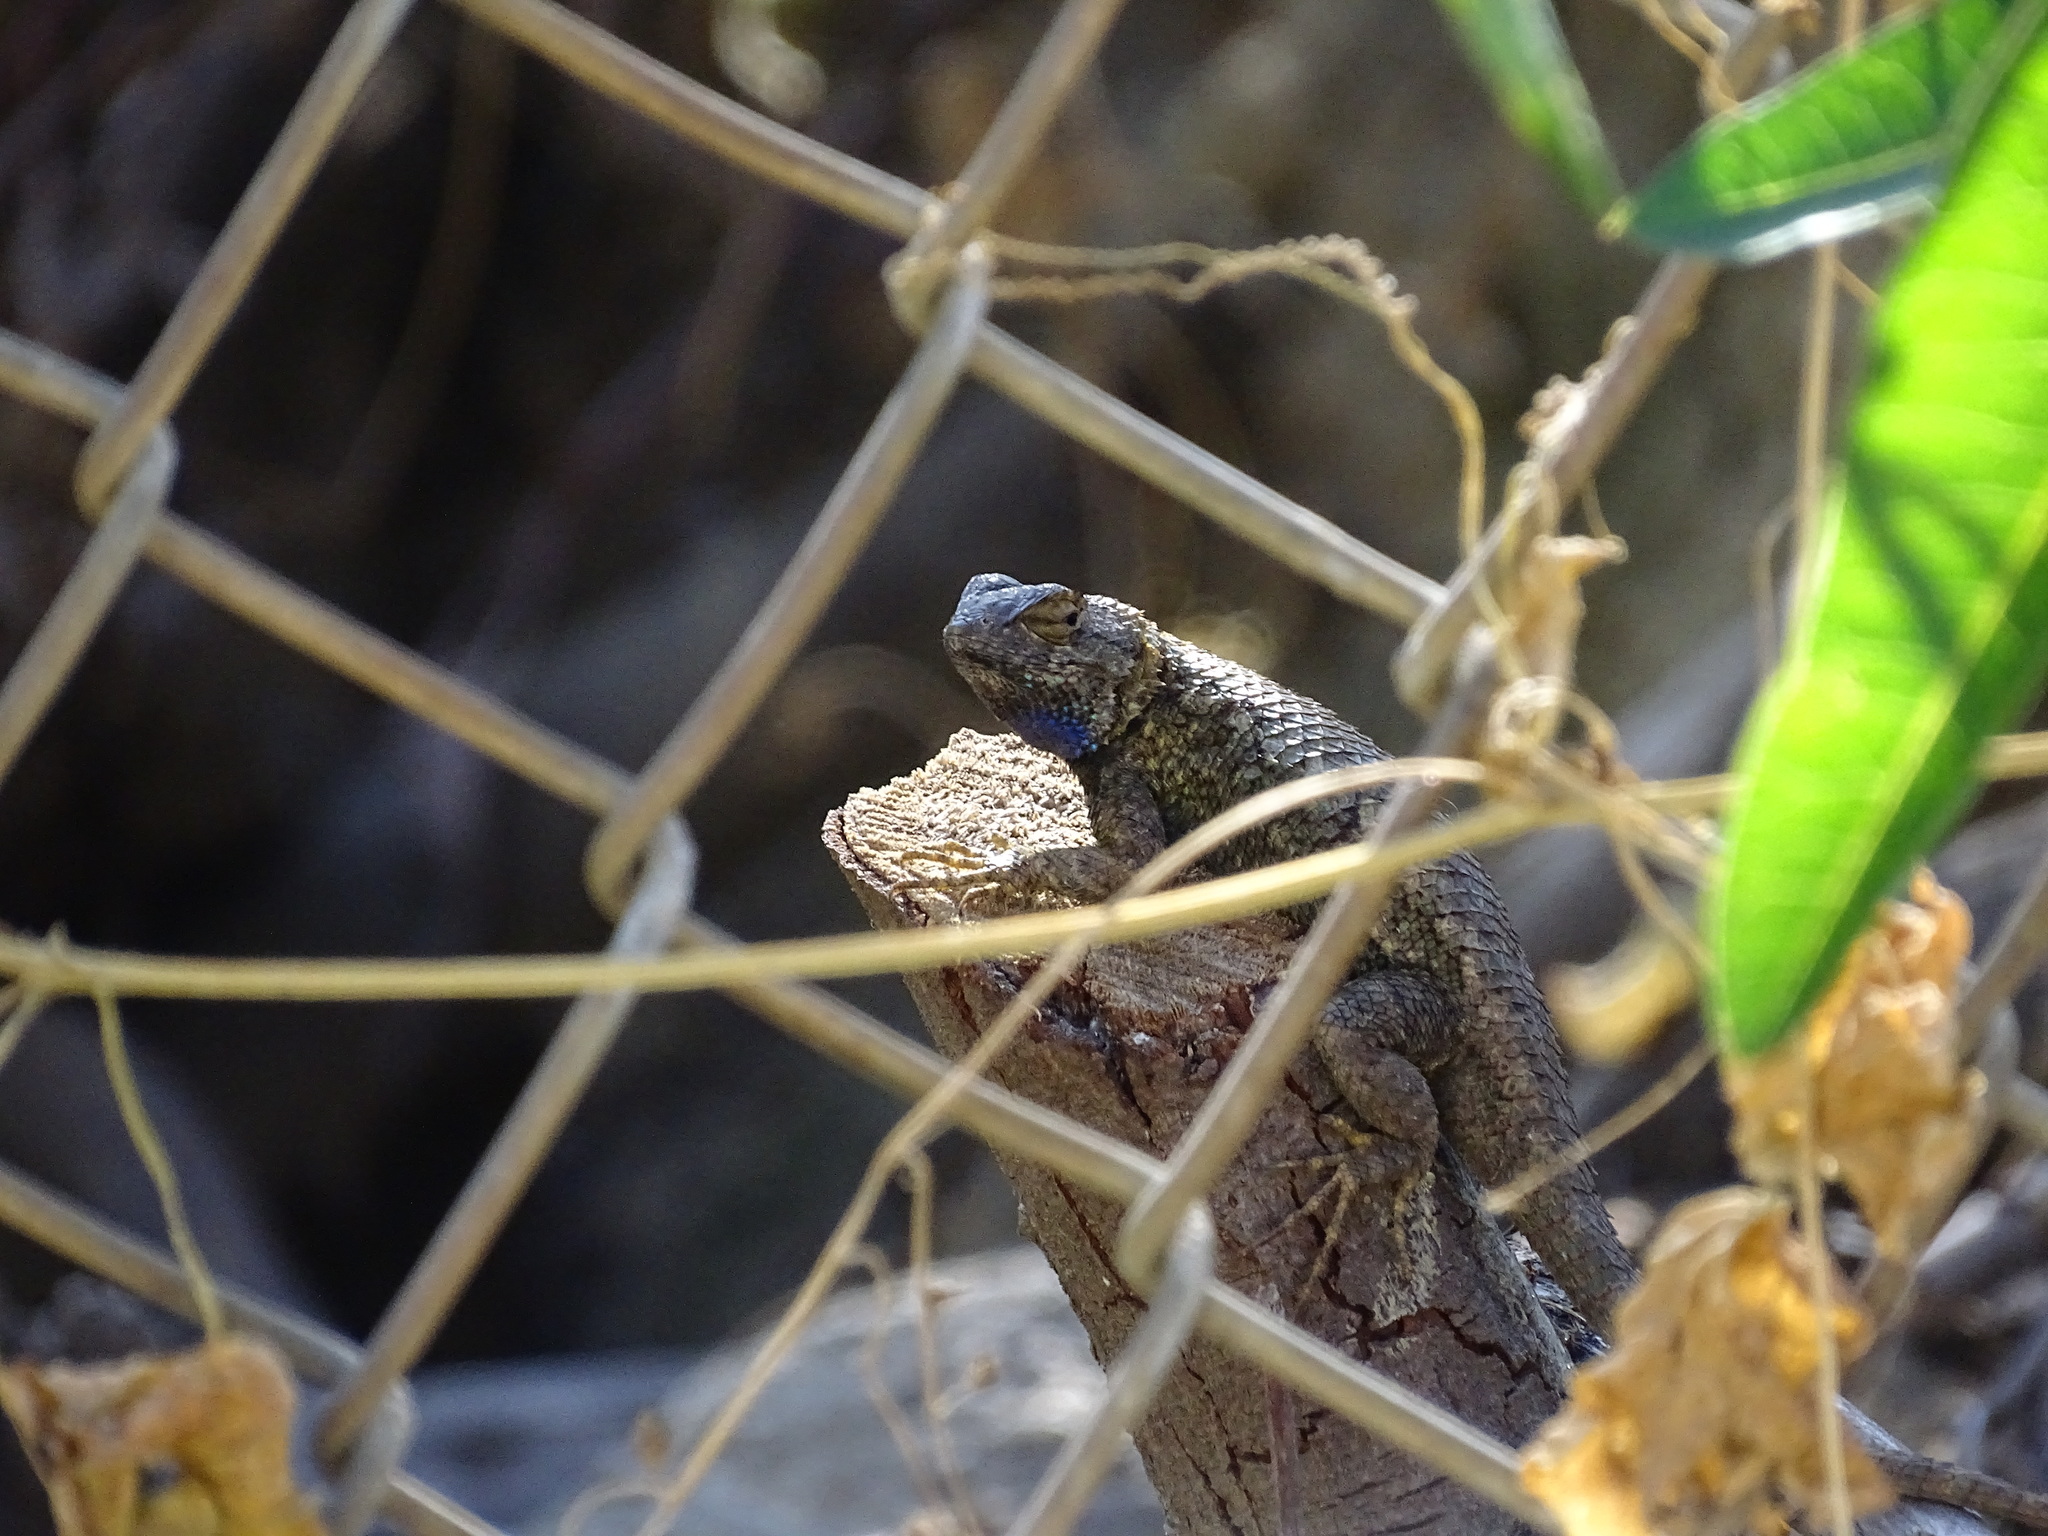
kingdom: Animalia
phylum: Chordata
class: Squamata
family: Phrynosomatidae
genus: Sceloporus
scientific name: Sceloporus occidentalis
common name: Western fence lizard
